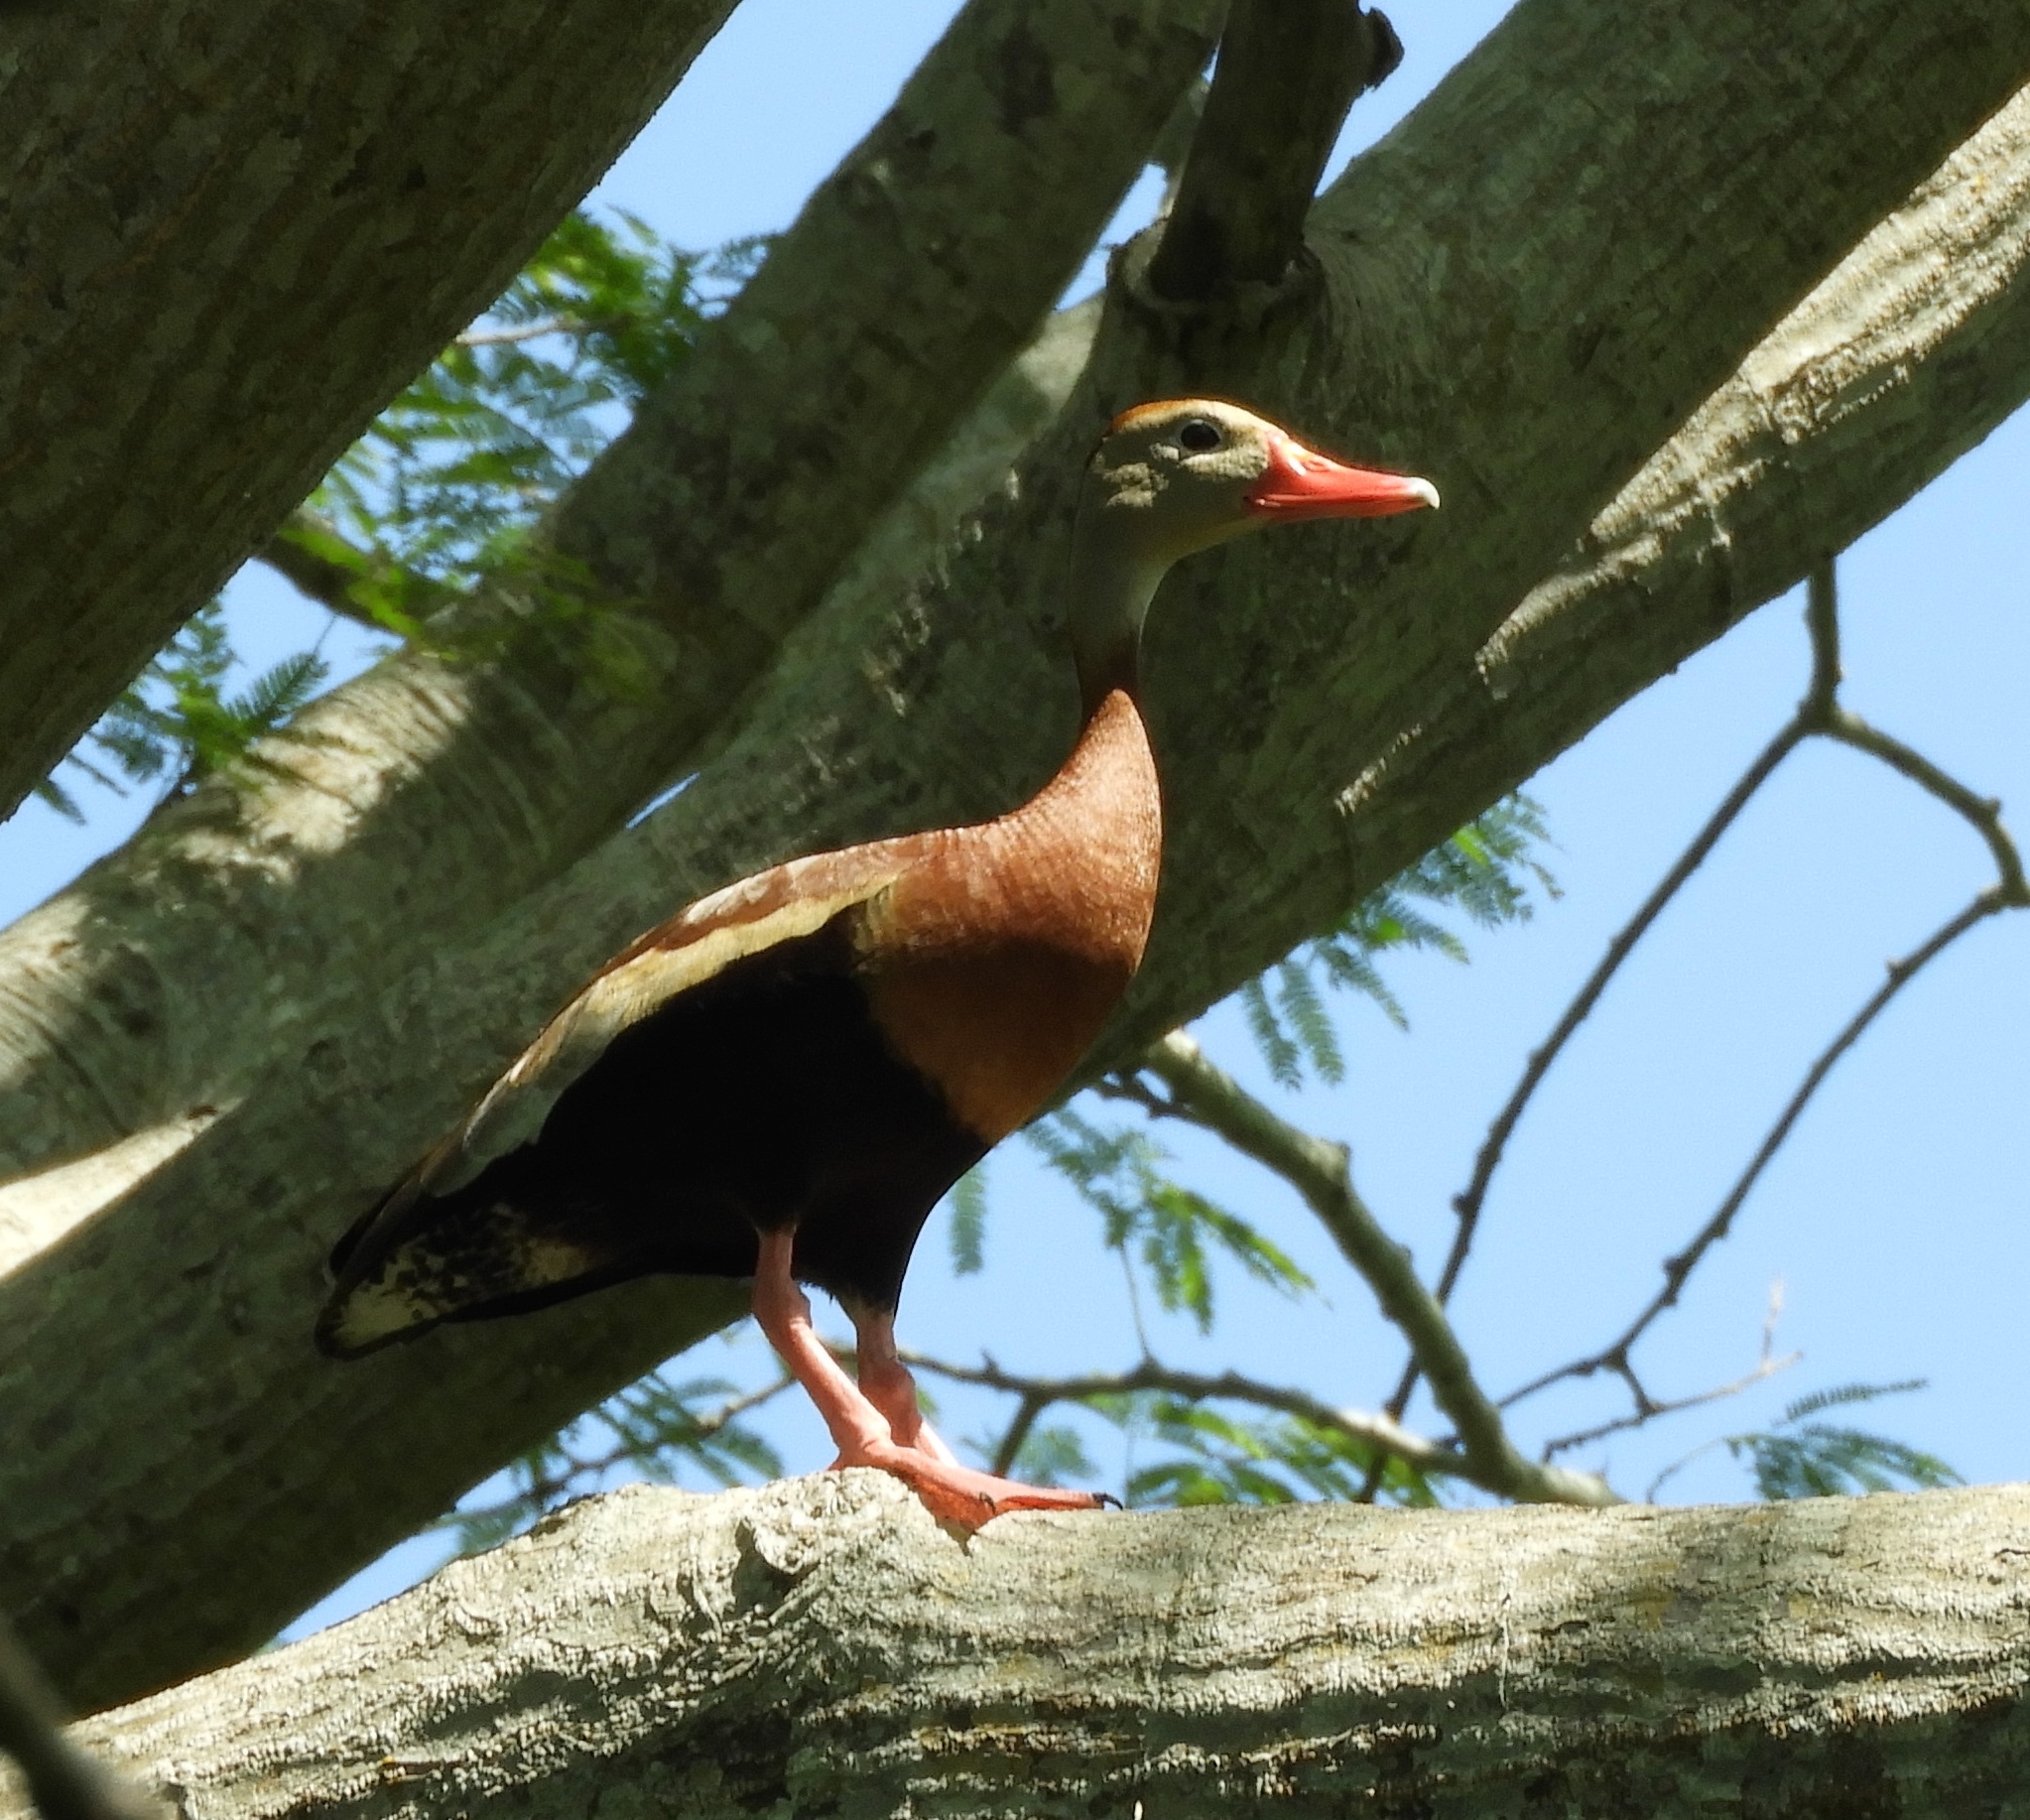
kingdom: Animalia
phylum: Chordata
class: Aves
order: Anseriformes
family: Anatidae
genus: Dendrocygna
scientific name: Dendrocygna autumnalis
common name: Black-bellied whistling duck
